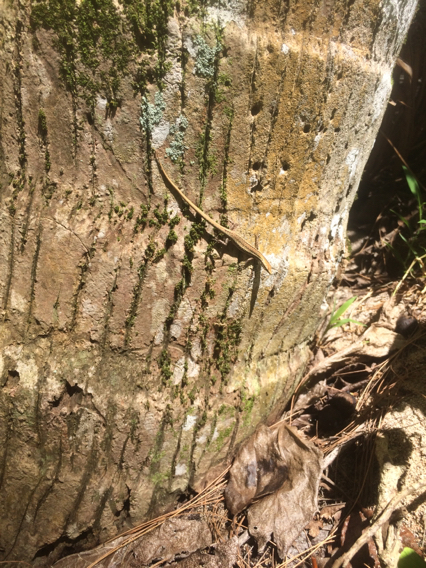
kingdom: Animalia
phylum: Chordata
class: Squamata
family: Scincidae
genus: Cryptoblepharus
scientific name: Cryptoblepharus poecilopleurus
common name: Mottled snake-eyed skink
